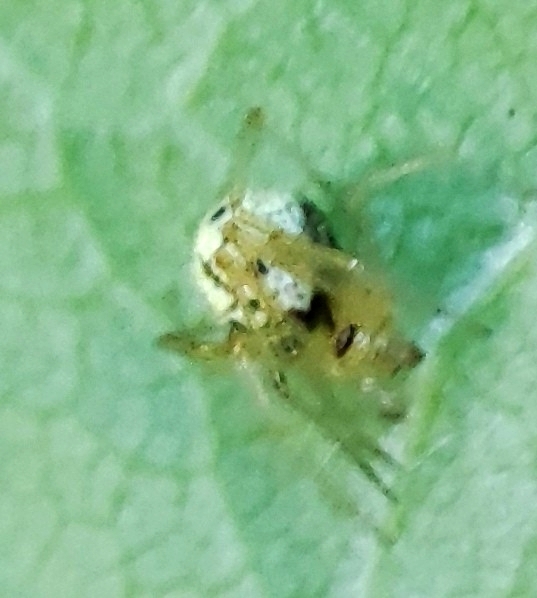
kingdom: Animalia
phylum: Arthropoda
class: Arachnida
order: Araneae
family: Theridiidae
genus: Enoplognatha
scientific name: Enoplognatha ovata
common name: Common candy-striped spider
